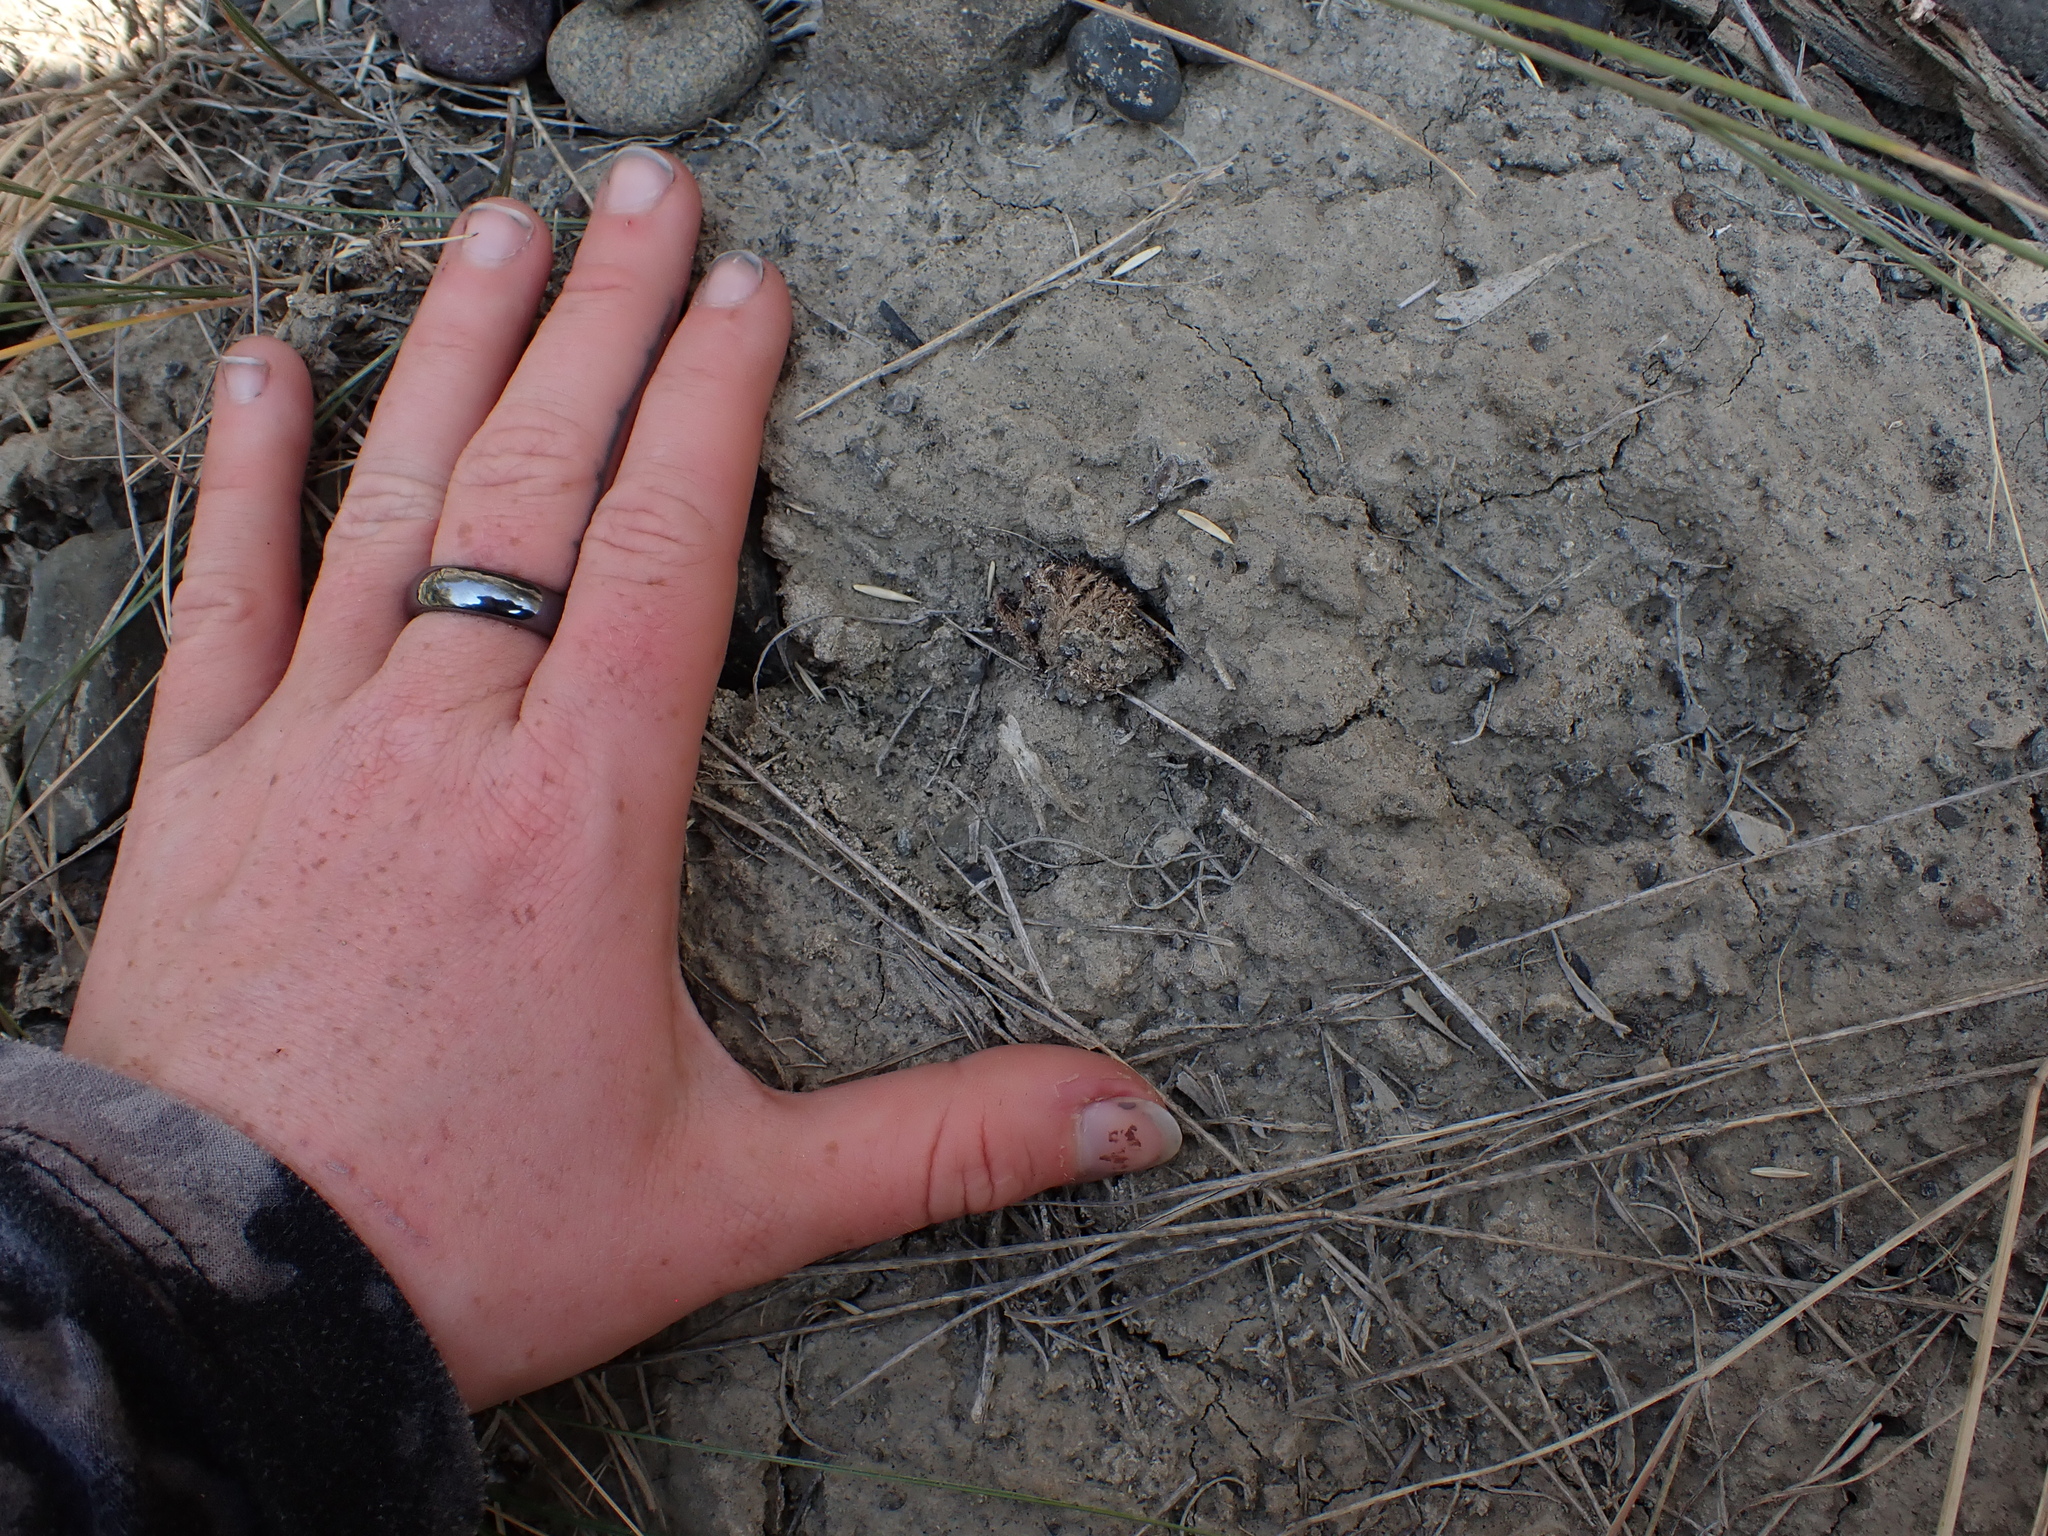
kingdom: Animalia
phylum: Chordata
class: Mammalia
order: Carnivora
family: Canidae
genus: Canis
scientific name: Canis latrans
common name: Coyote
